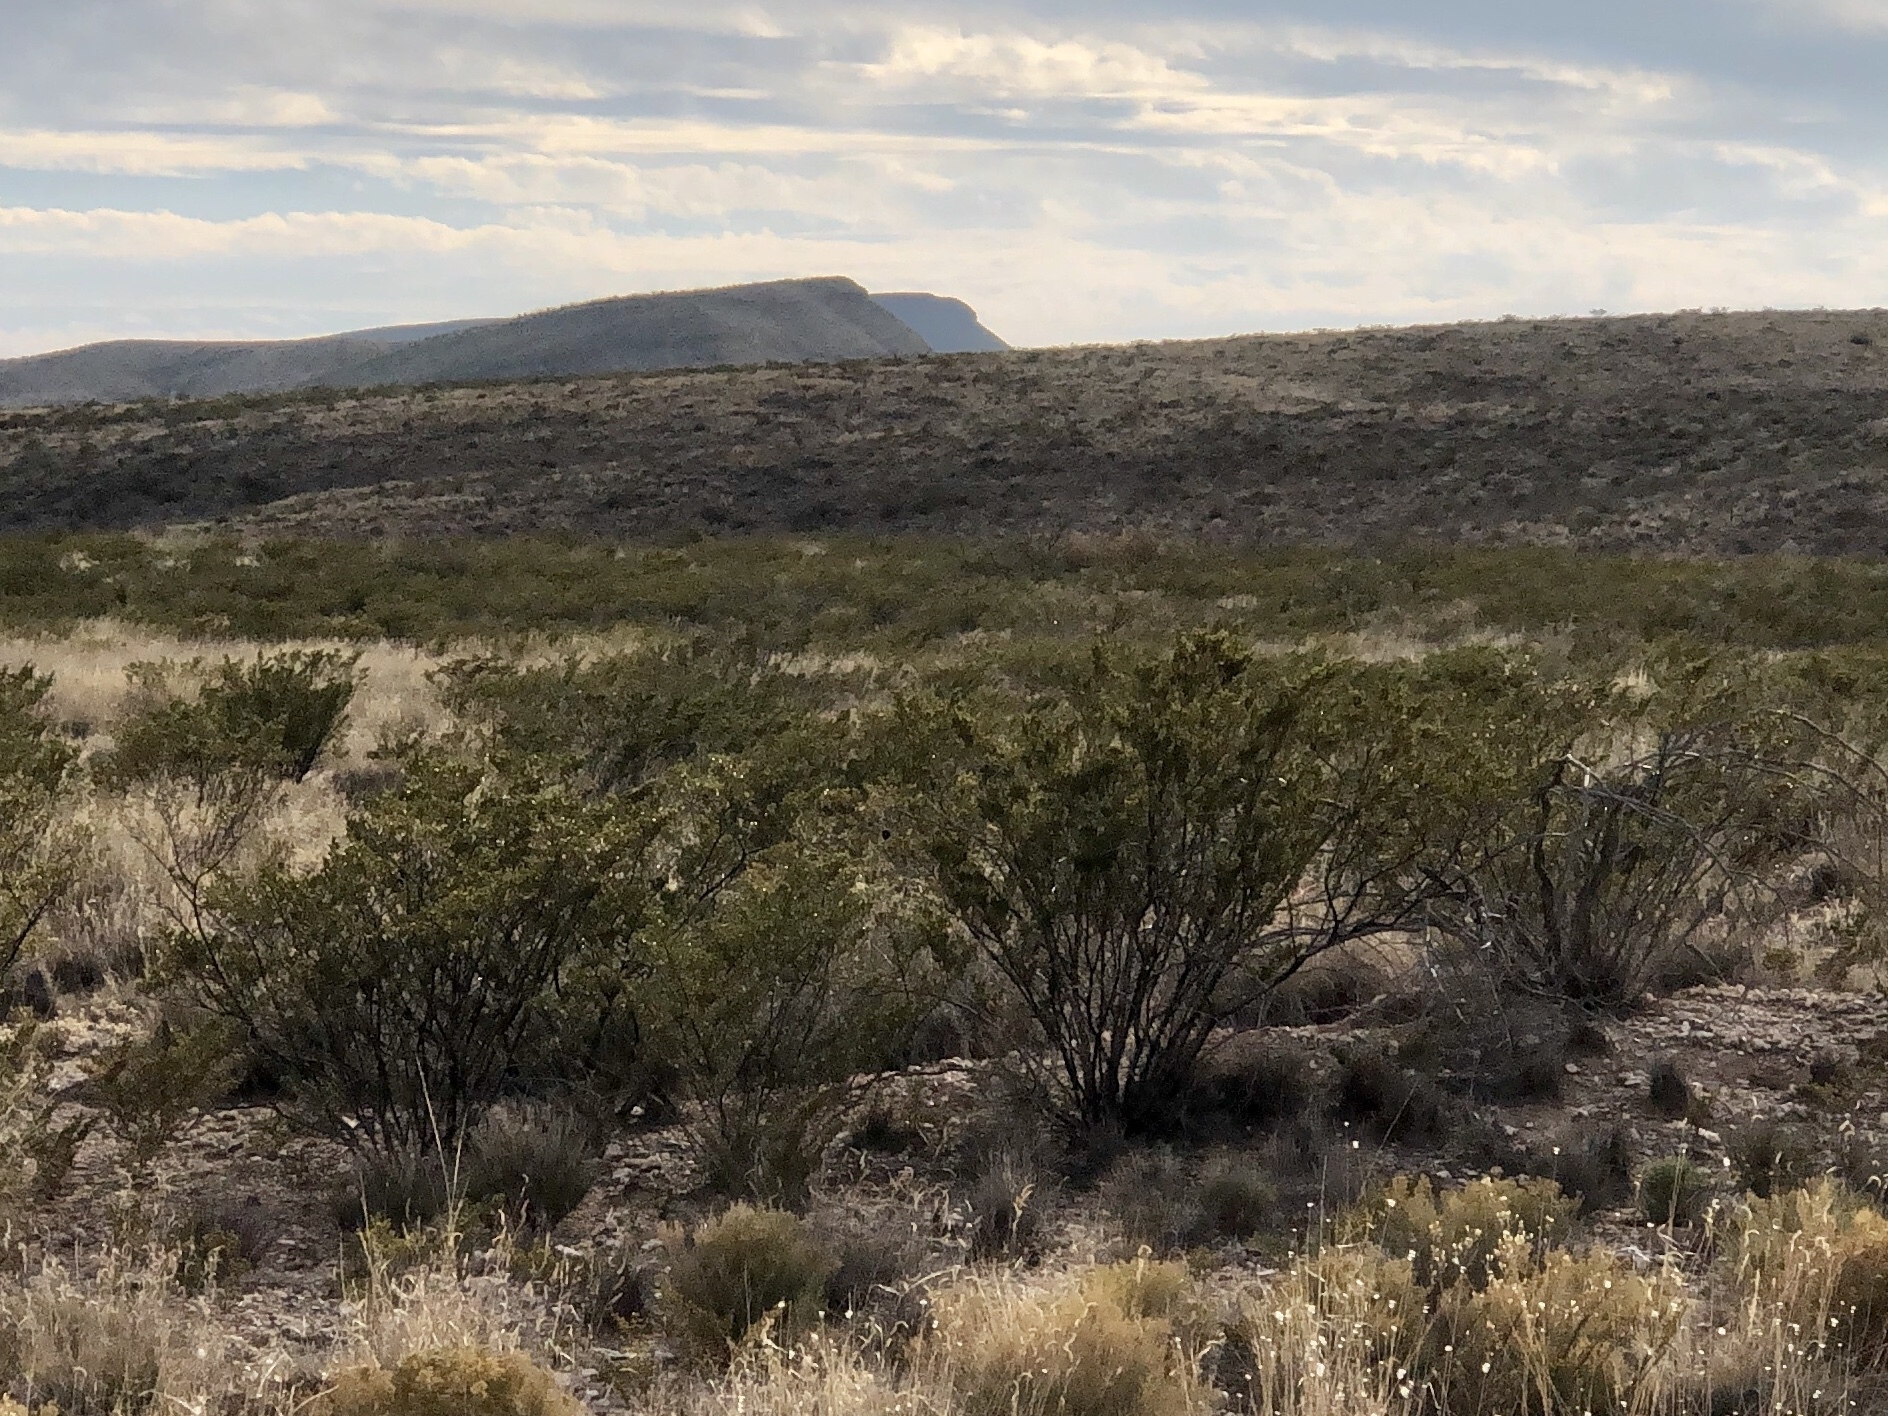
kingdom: Plantae
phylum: Tracheophyta
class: Magnoliopsida
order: Zygophyllales
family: Zygophyllaceae
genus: Larrea
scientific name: Larrea tridentata
